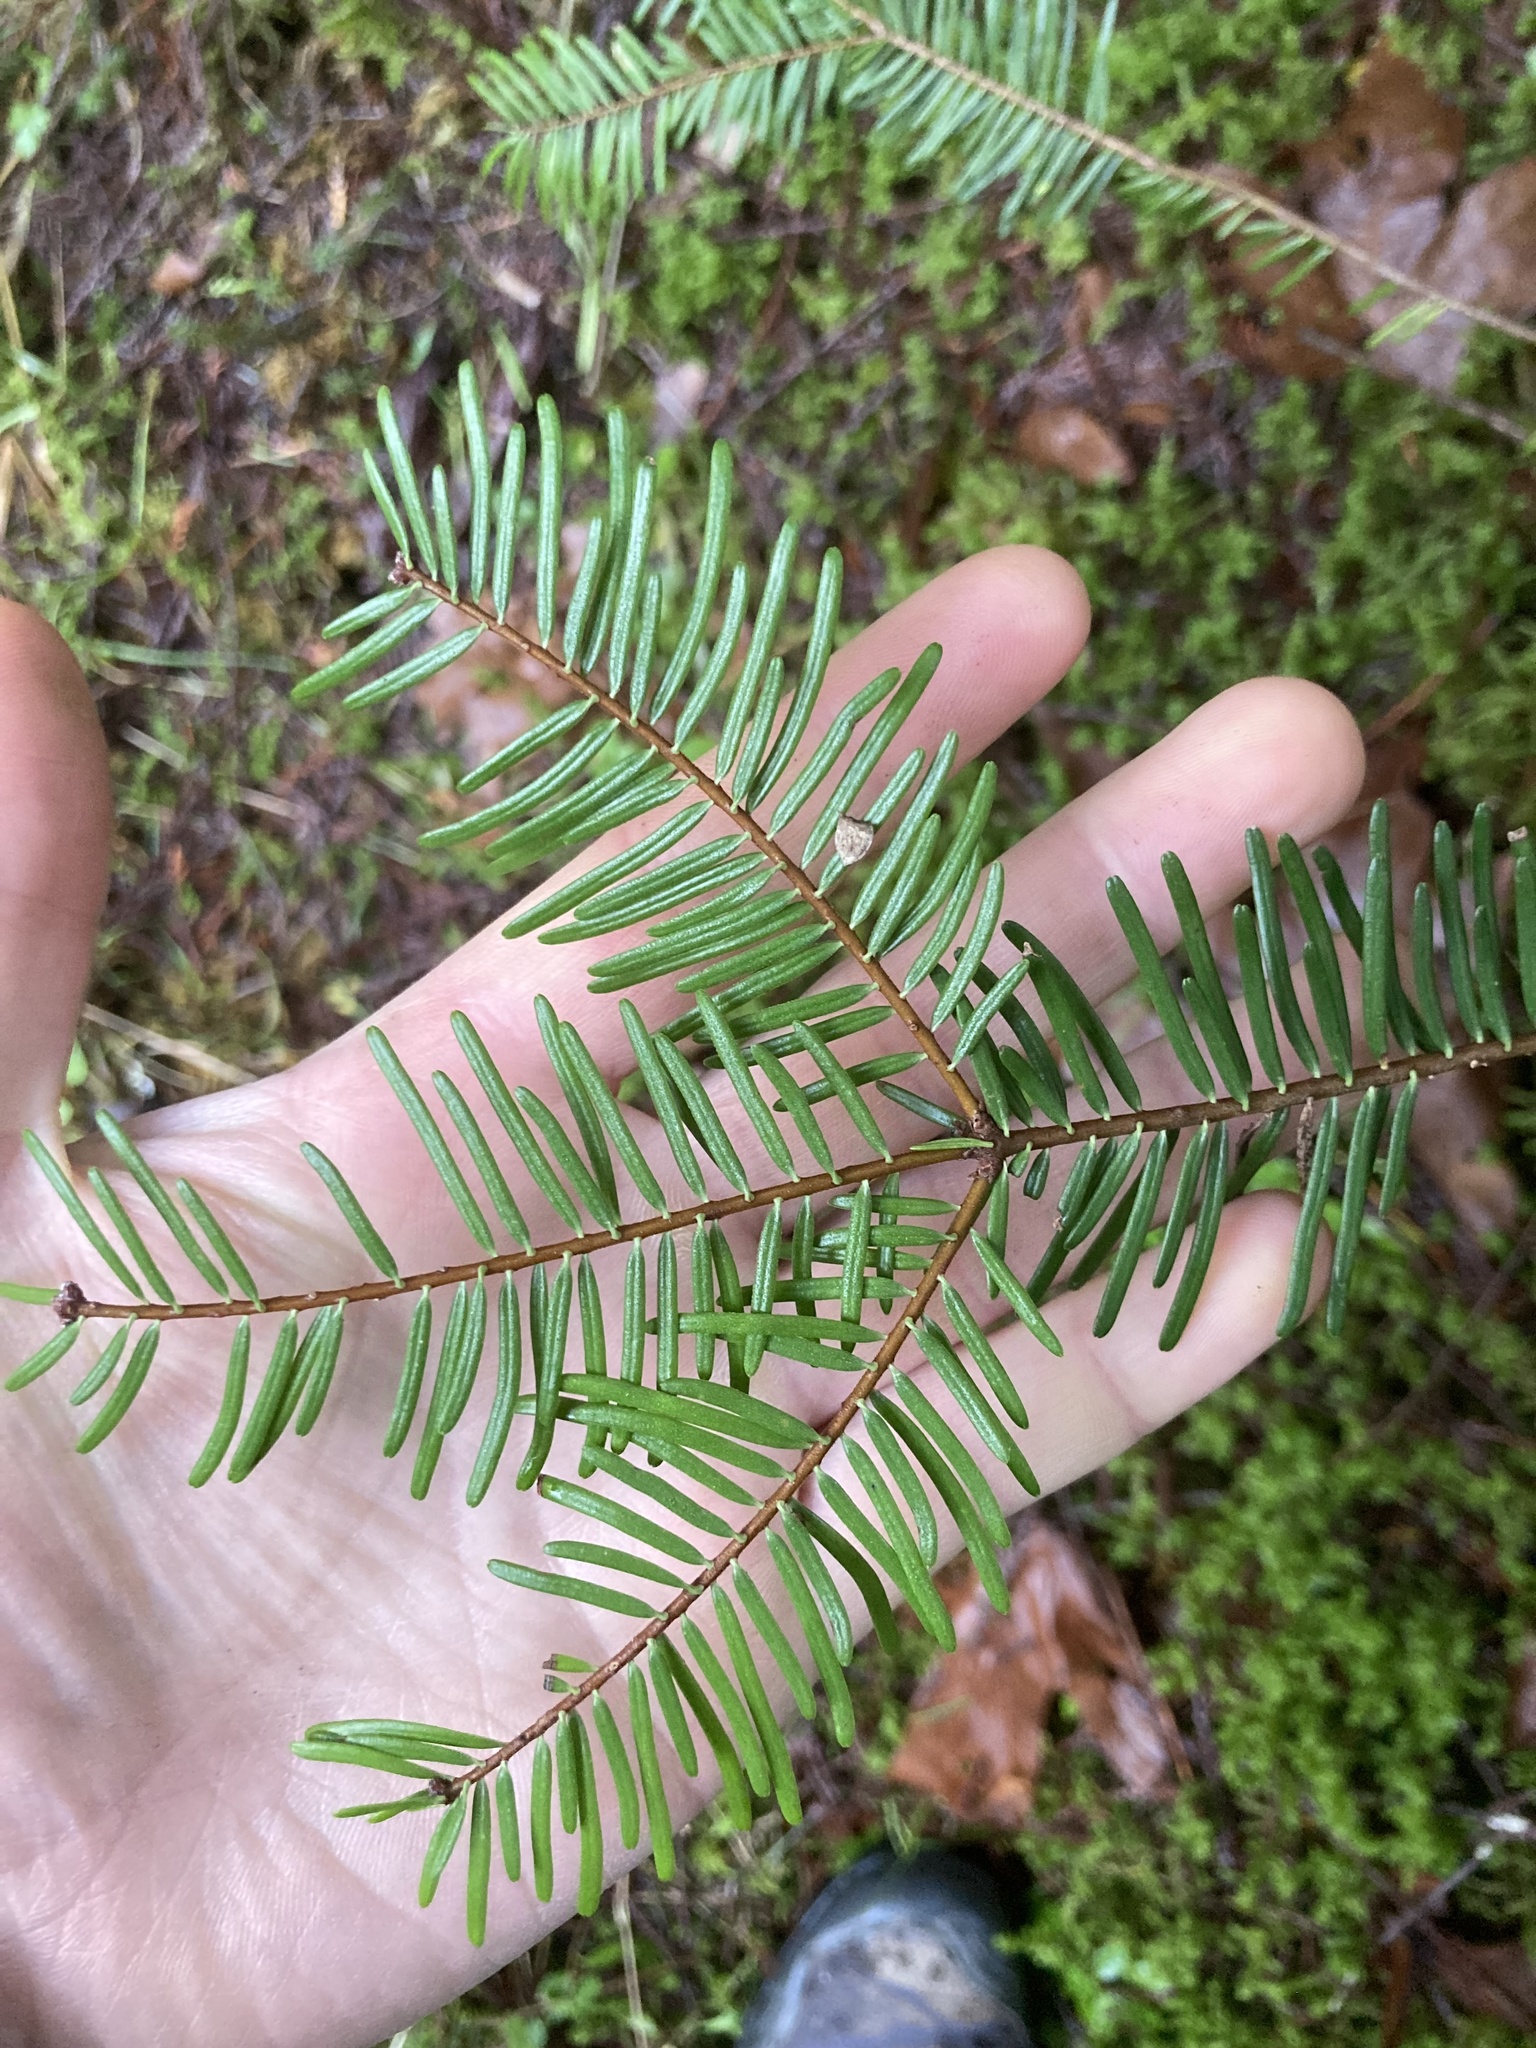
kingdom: Plantae
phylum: Tracheophyta
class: Pinopsida
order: Pinales
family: Pinaceae
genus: Abies
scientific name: Abies grandis
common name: Giant fir
